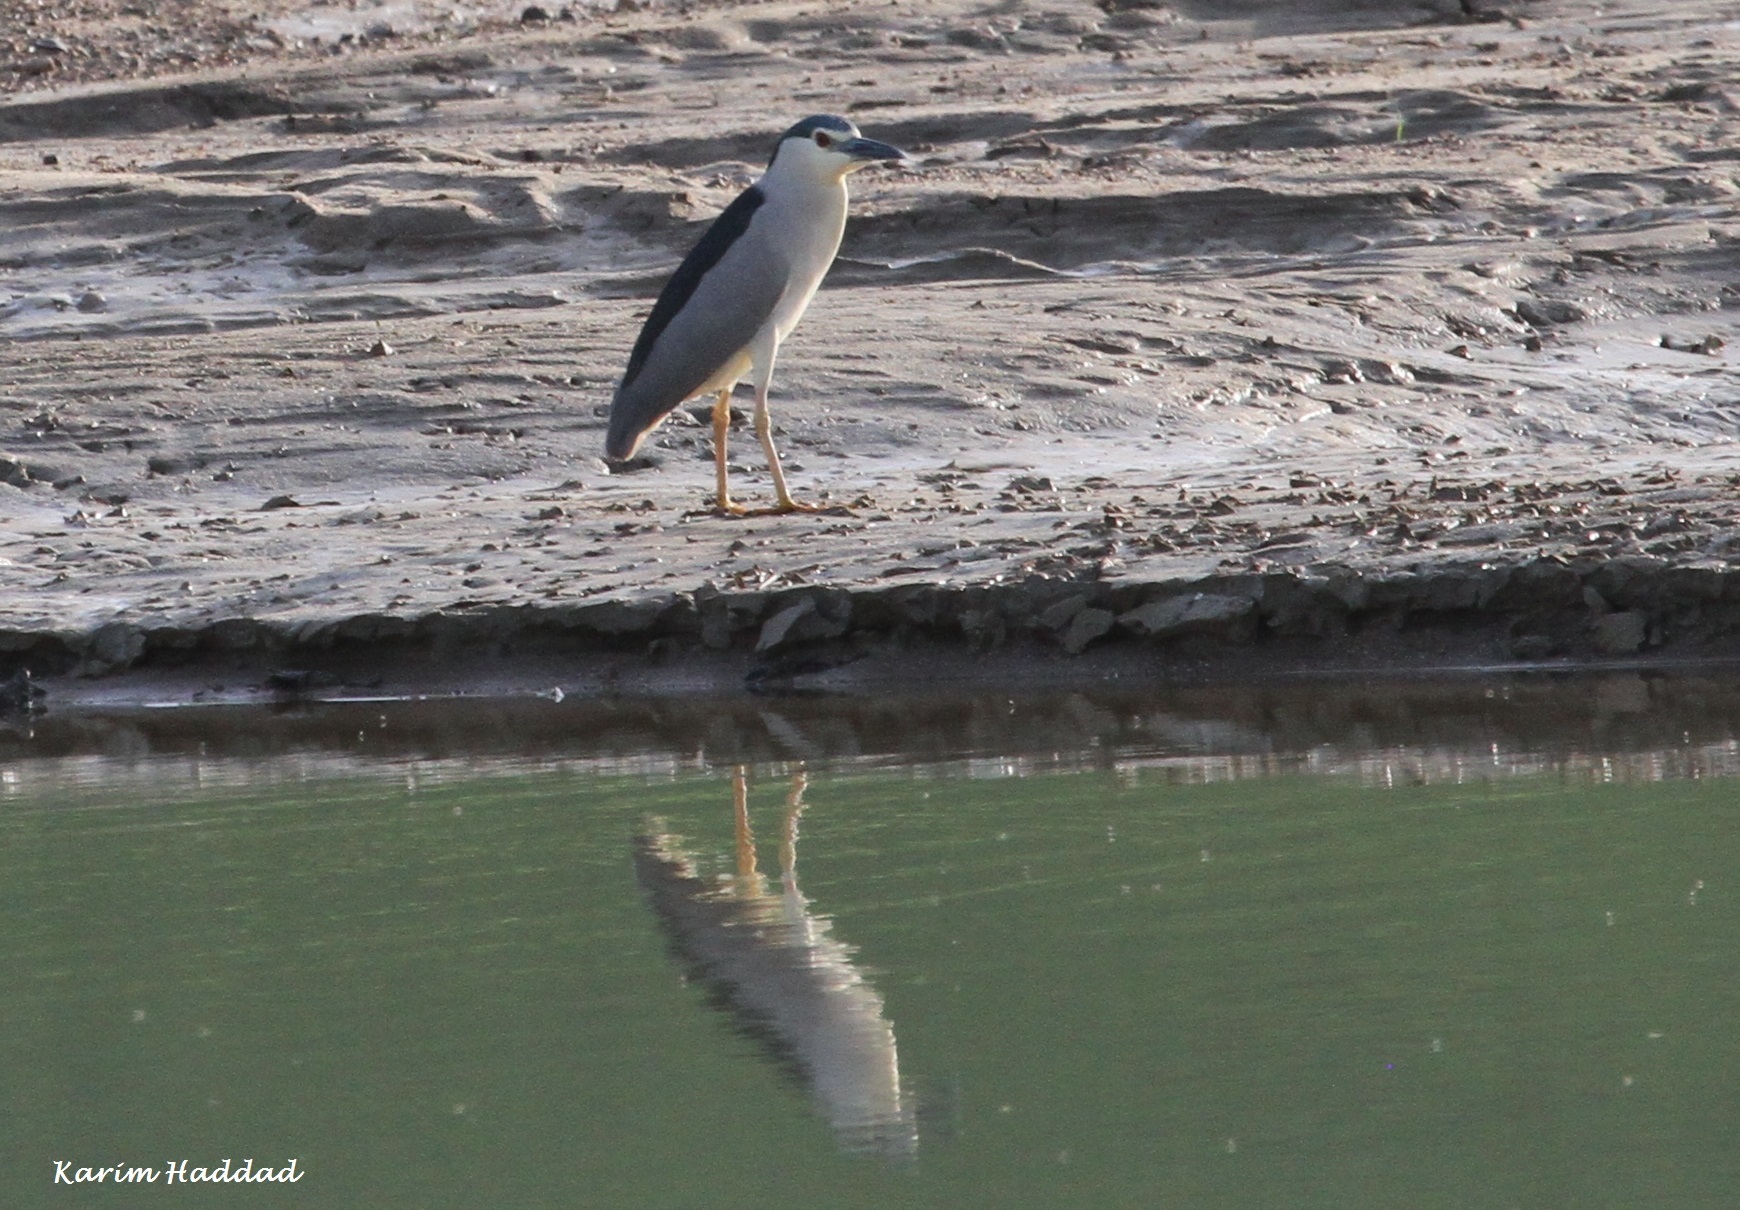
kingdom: Animalia
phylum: Chordata
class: Aves
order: Pelecaniformes
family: Ardeidae
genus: Nycticorax
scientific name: Nycticorax nycticorax
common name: Black-crowned night heron
